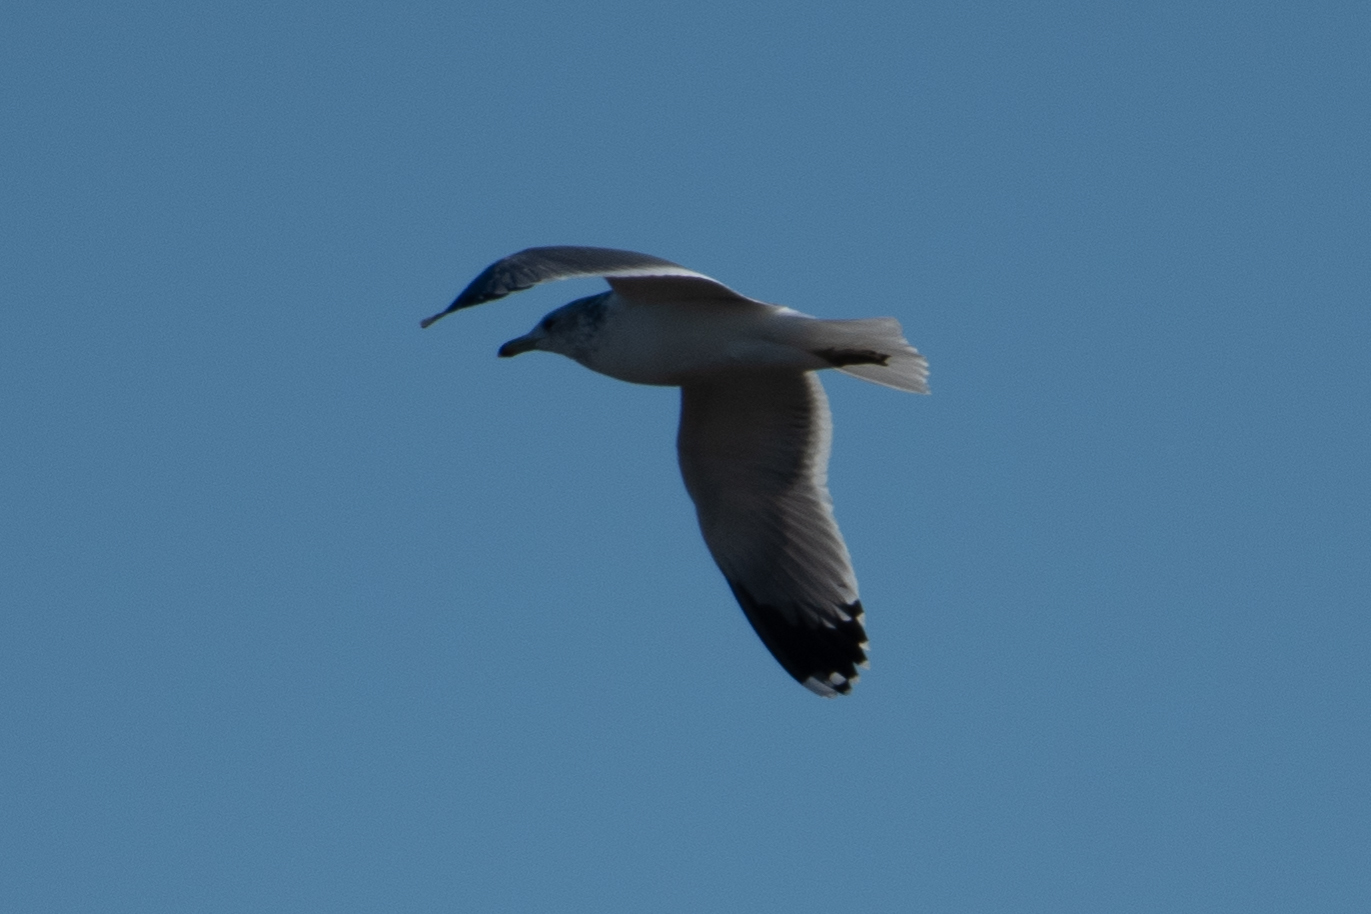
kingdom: Animalia
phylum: Chordata
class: Aves
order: Charadriiformes
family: Laridae
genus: Larus
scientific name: Larus californicus
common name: California gull
